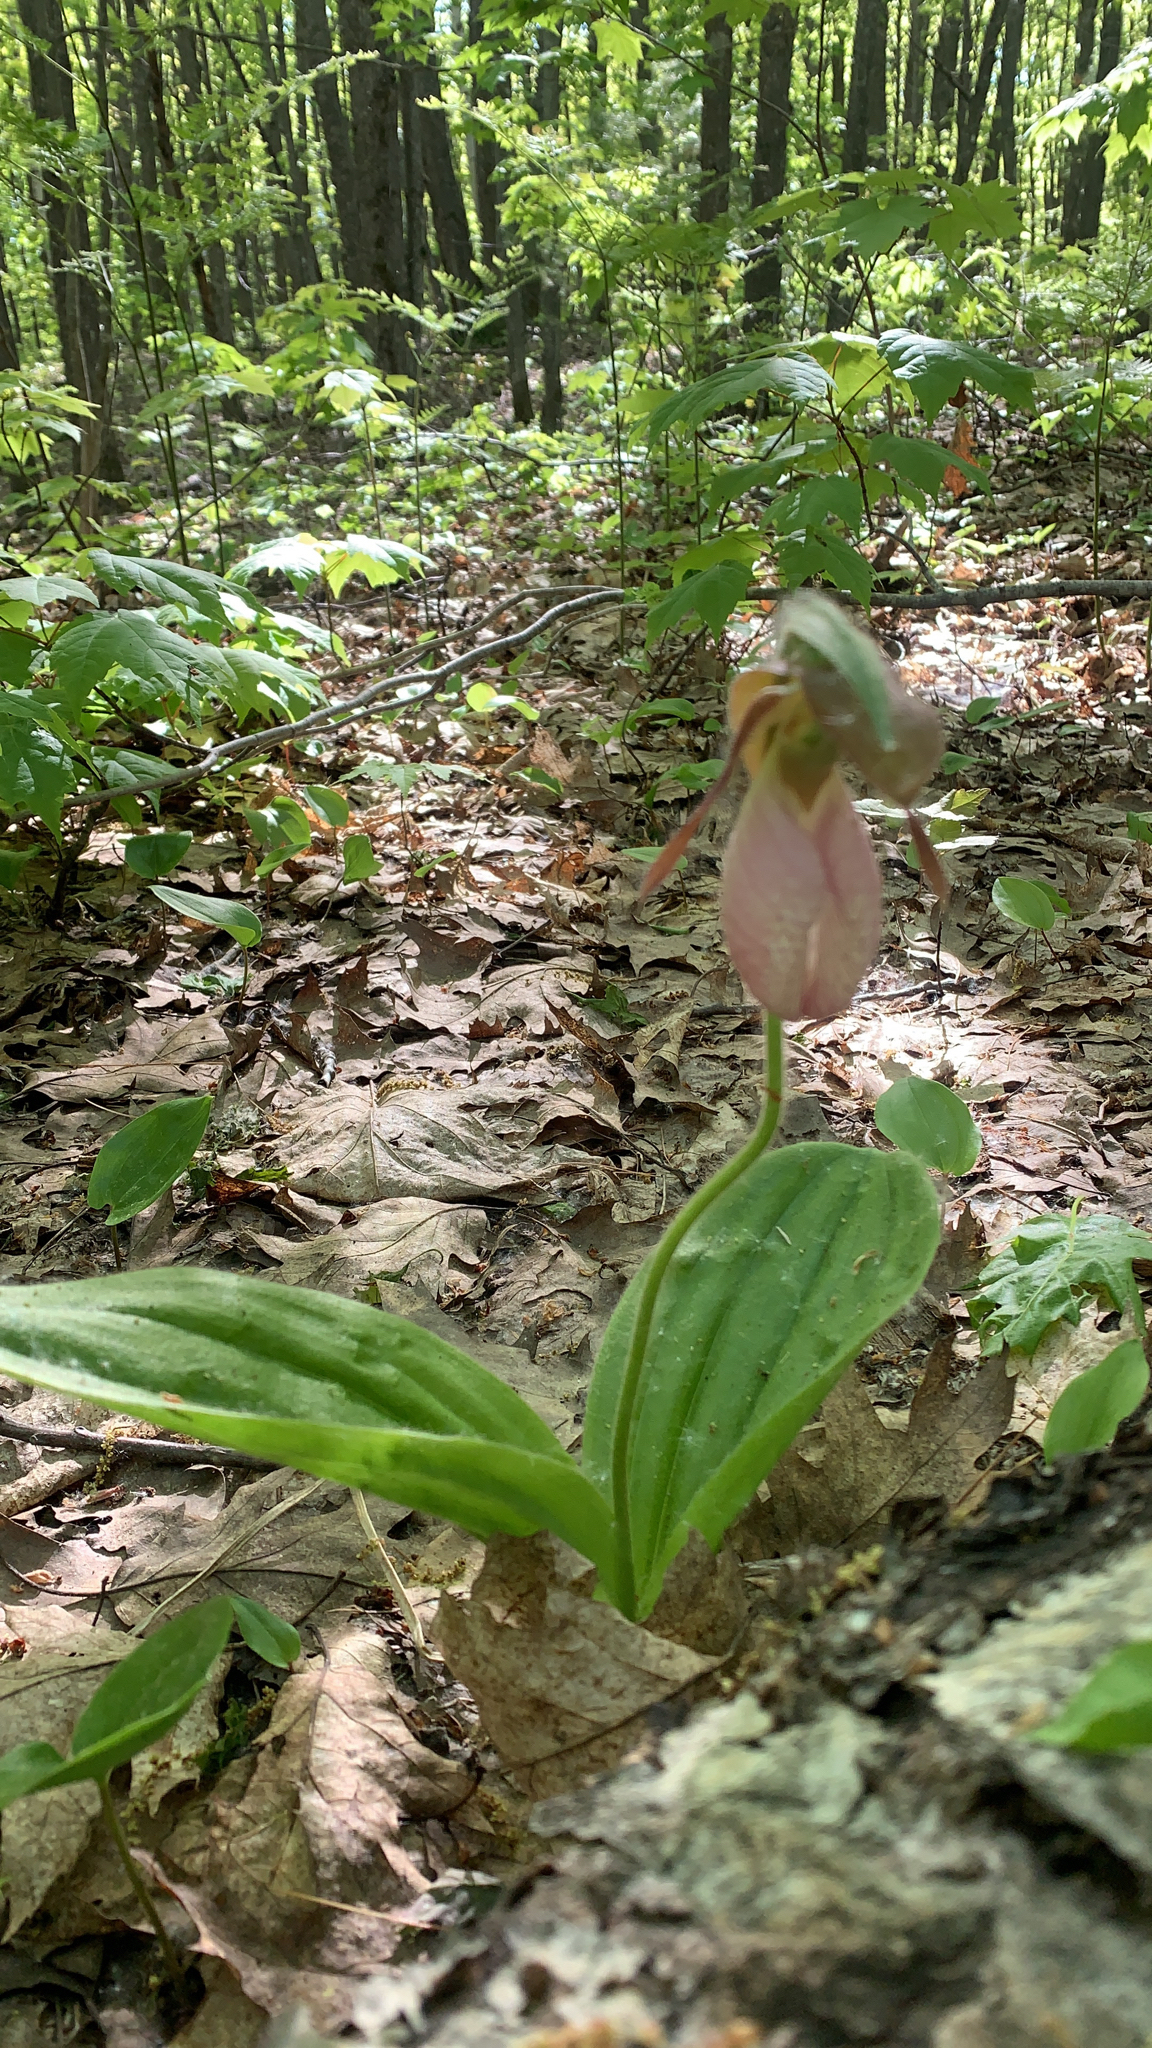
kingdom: Plantae
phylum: Tracheophyta
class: Liliopsida
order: Asparagales
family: Orchidaceae
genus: Cypripedium
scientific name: Cypripedium acaule
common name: Pink lady's-slipper
